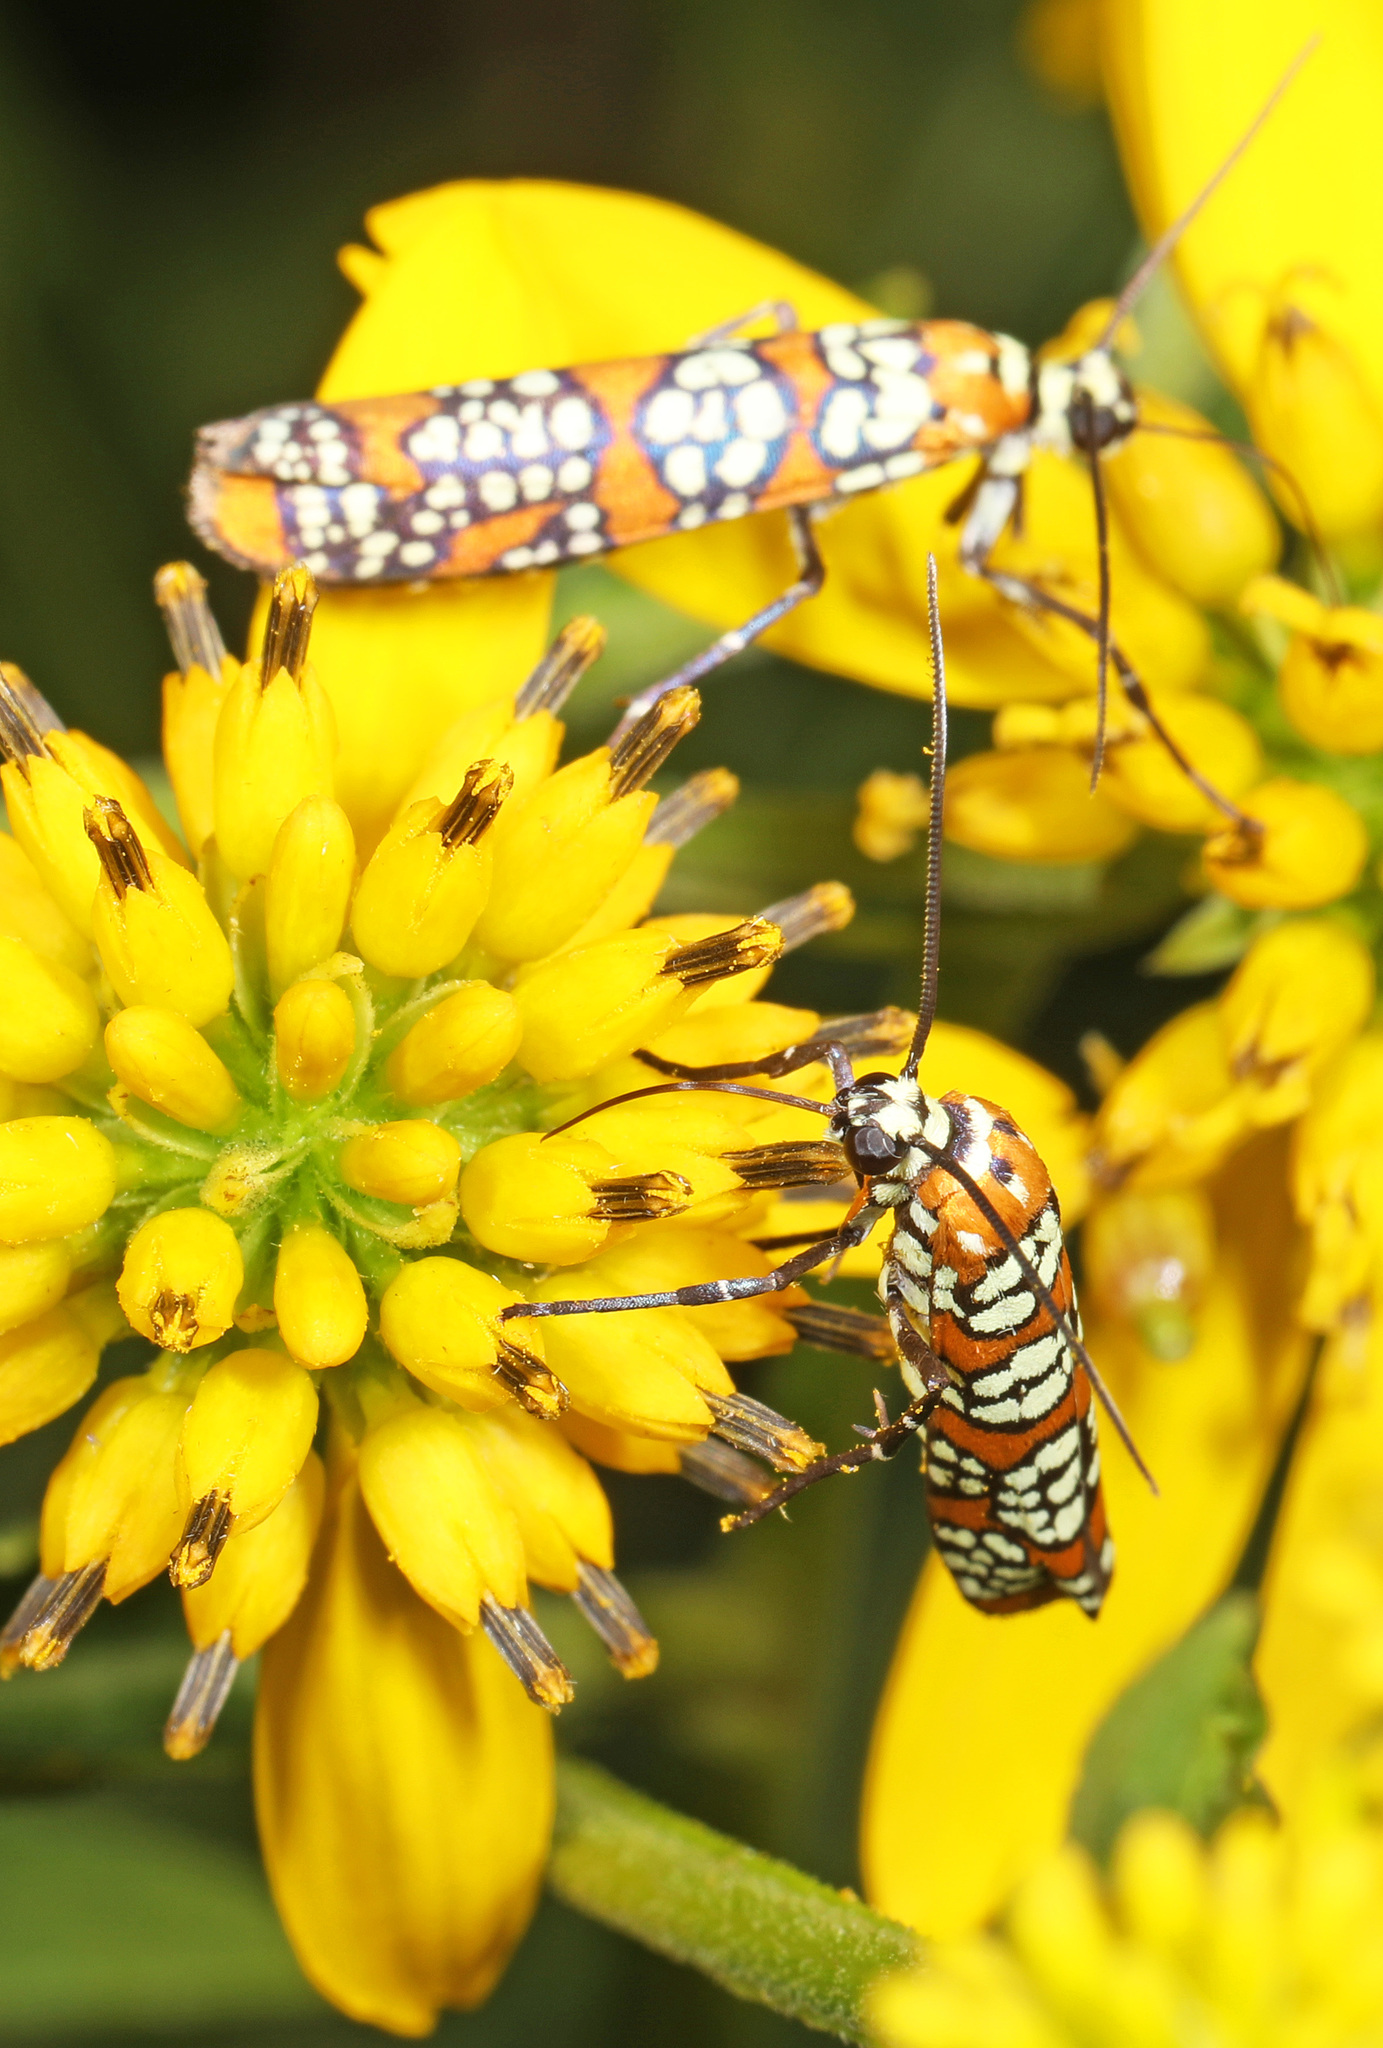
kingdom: Animalia
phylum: Arthropoda
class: Insecta
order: Lepidoptera
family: Attevidae
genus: Atteva
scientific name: Atteva punctella
